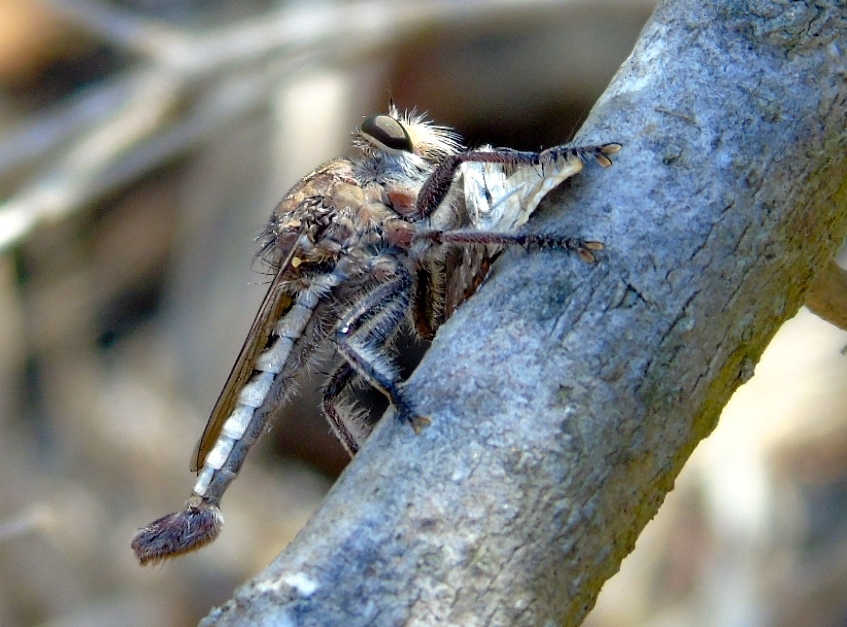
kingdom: Animalia
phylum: Arthropoda
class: Insecta
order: Diptera
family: Asilidae
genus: Efferia
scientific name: Efferia
